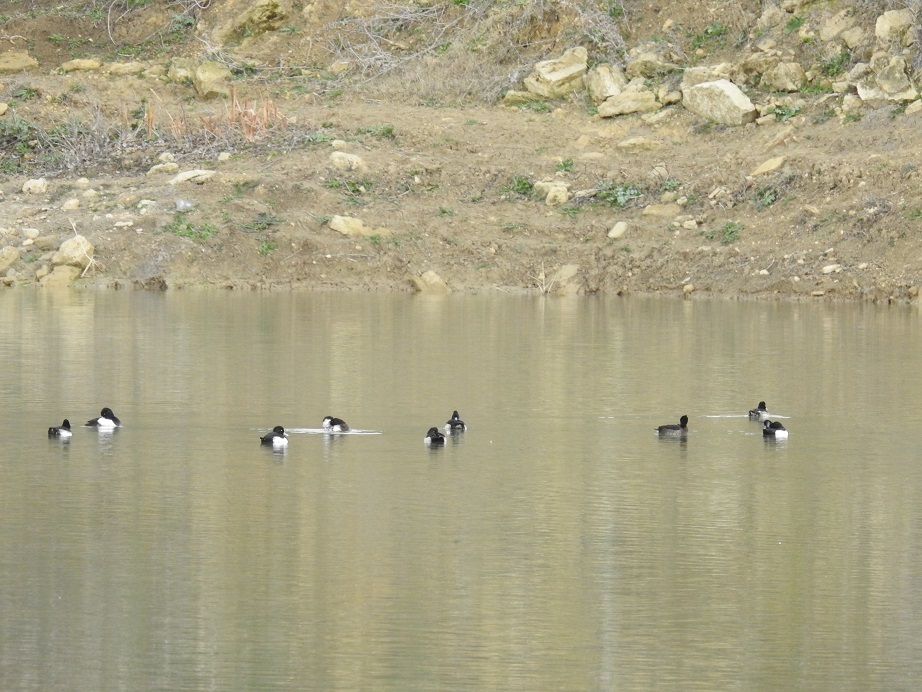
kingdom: Animalia
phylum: Chordata
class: Aves
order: Anseriformes
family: Anatidae
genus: Aythya
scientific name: Aythya fuligula
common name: Tufted duck
